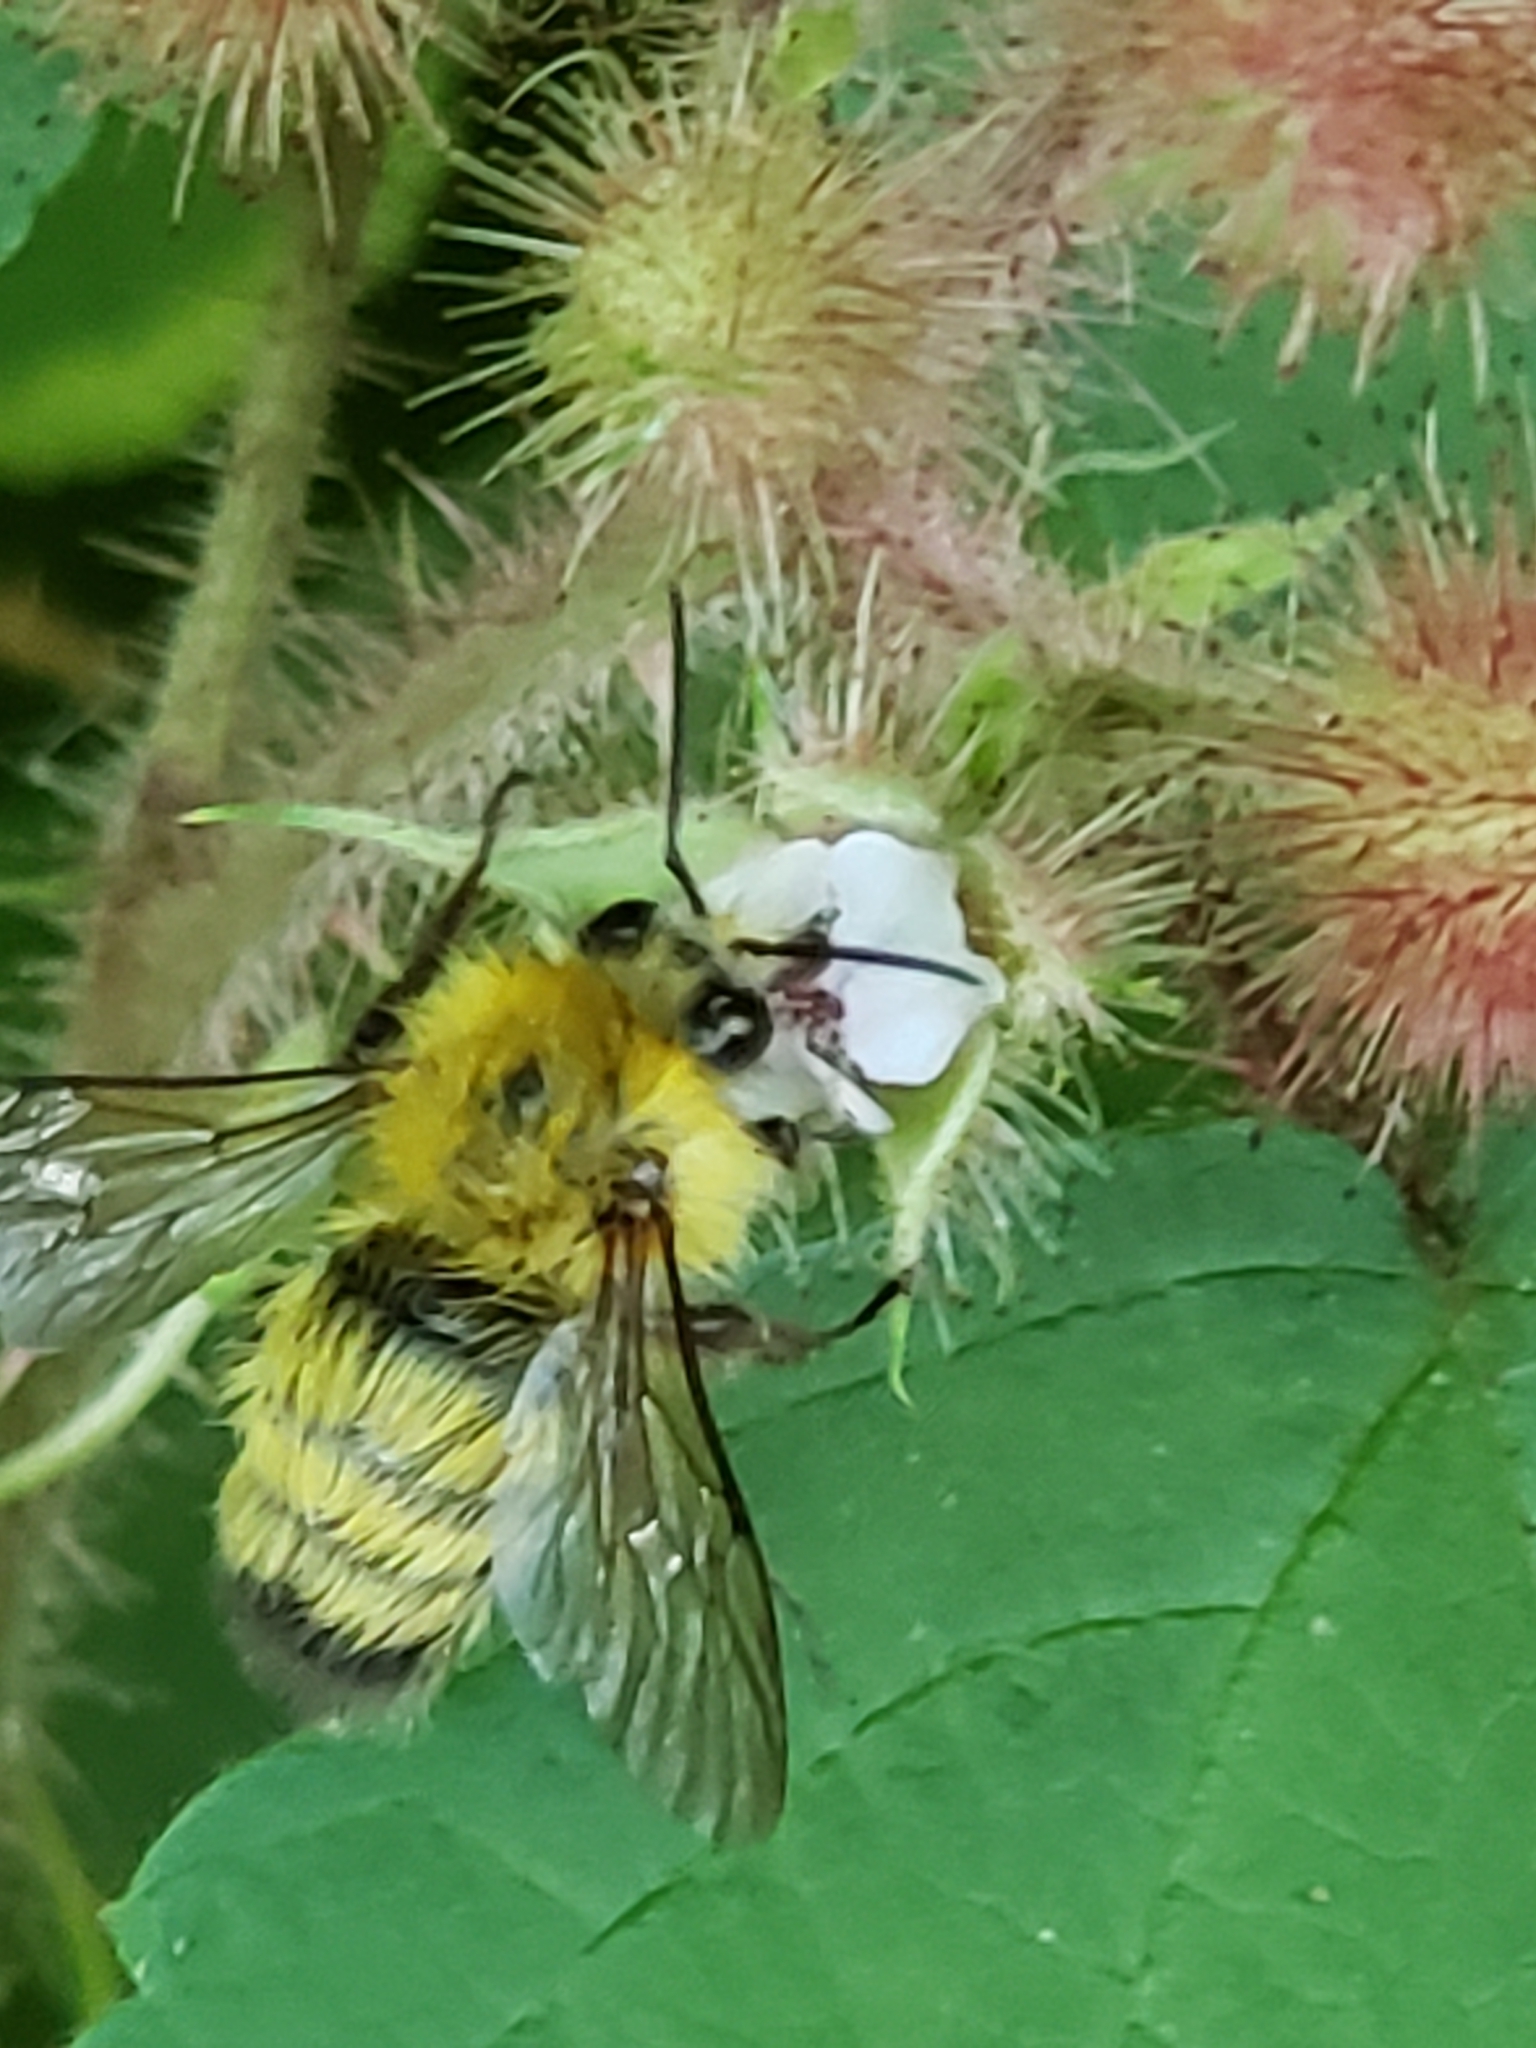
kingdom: Animalia
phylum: Arthropoda
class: Insecta
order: Hymenoptera
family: Apidae
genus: Bombus
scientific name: Bombus perplexus
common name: Confusing bumble bee
